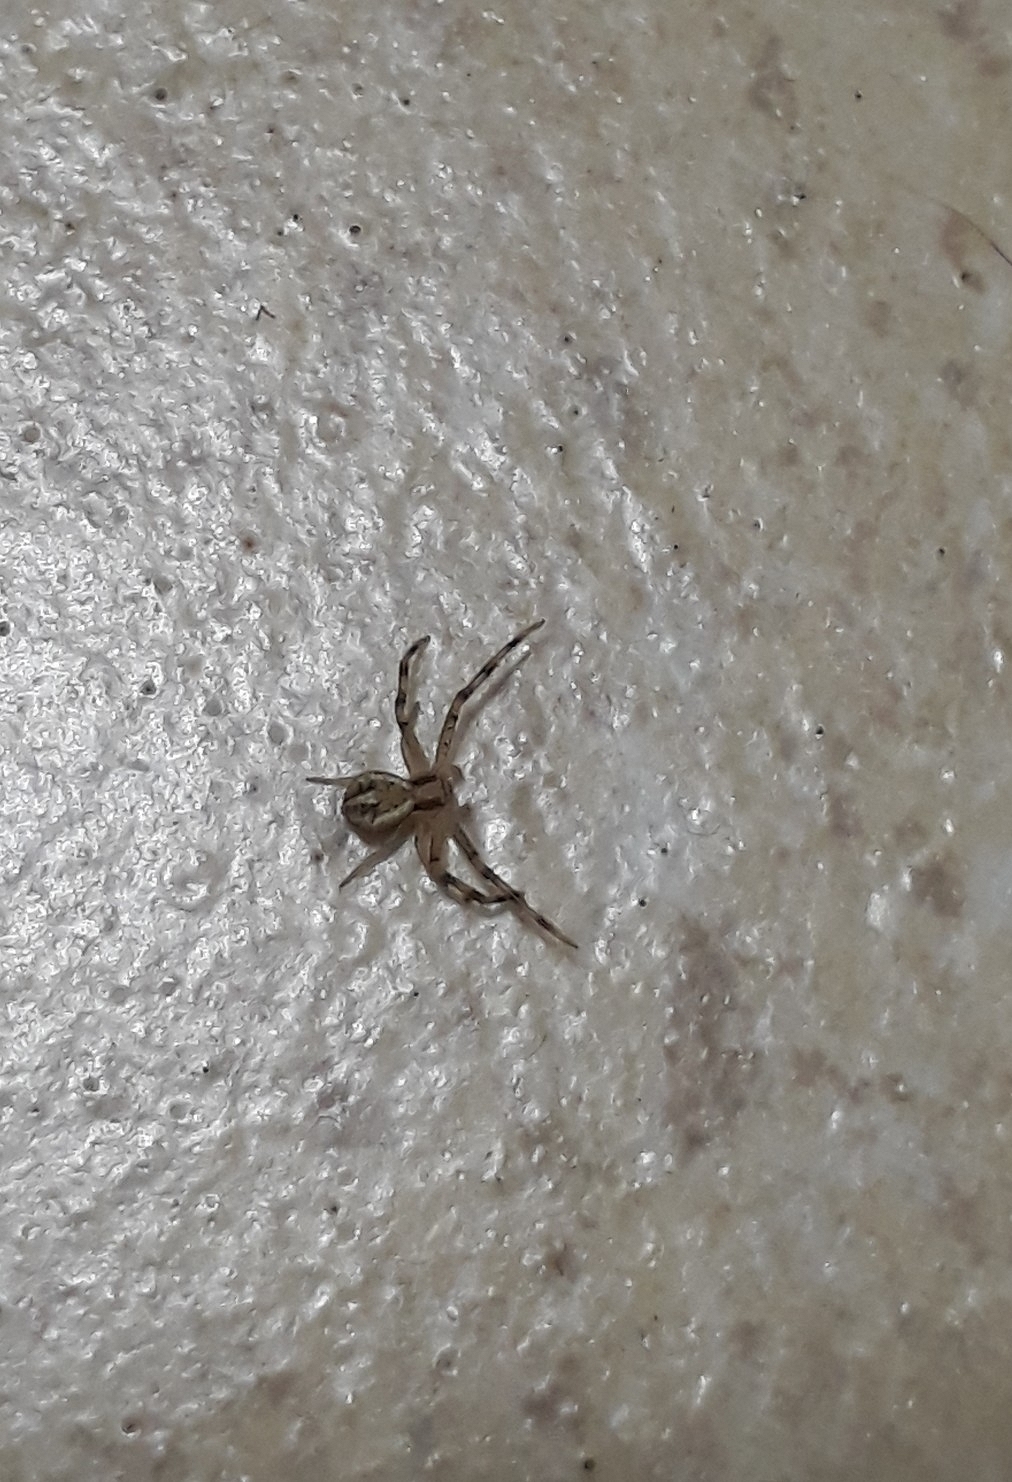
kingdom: Animalia
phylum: Arthropoda
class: Arachnida
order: Araneae
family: Thomisidae
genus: Misumenops
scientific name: Misumenops
